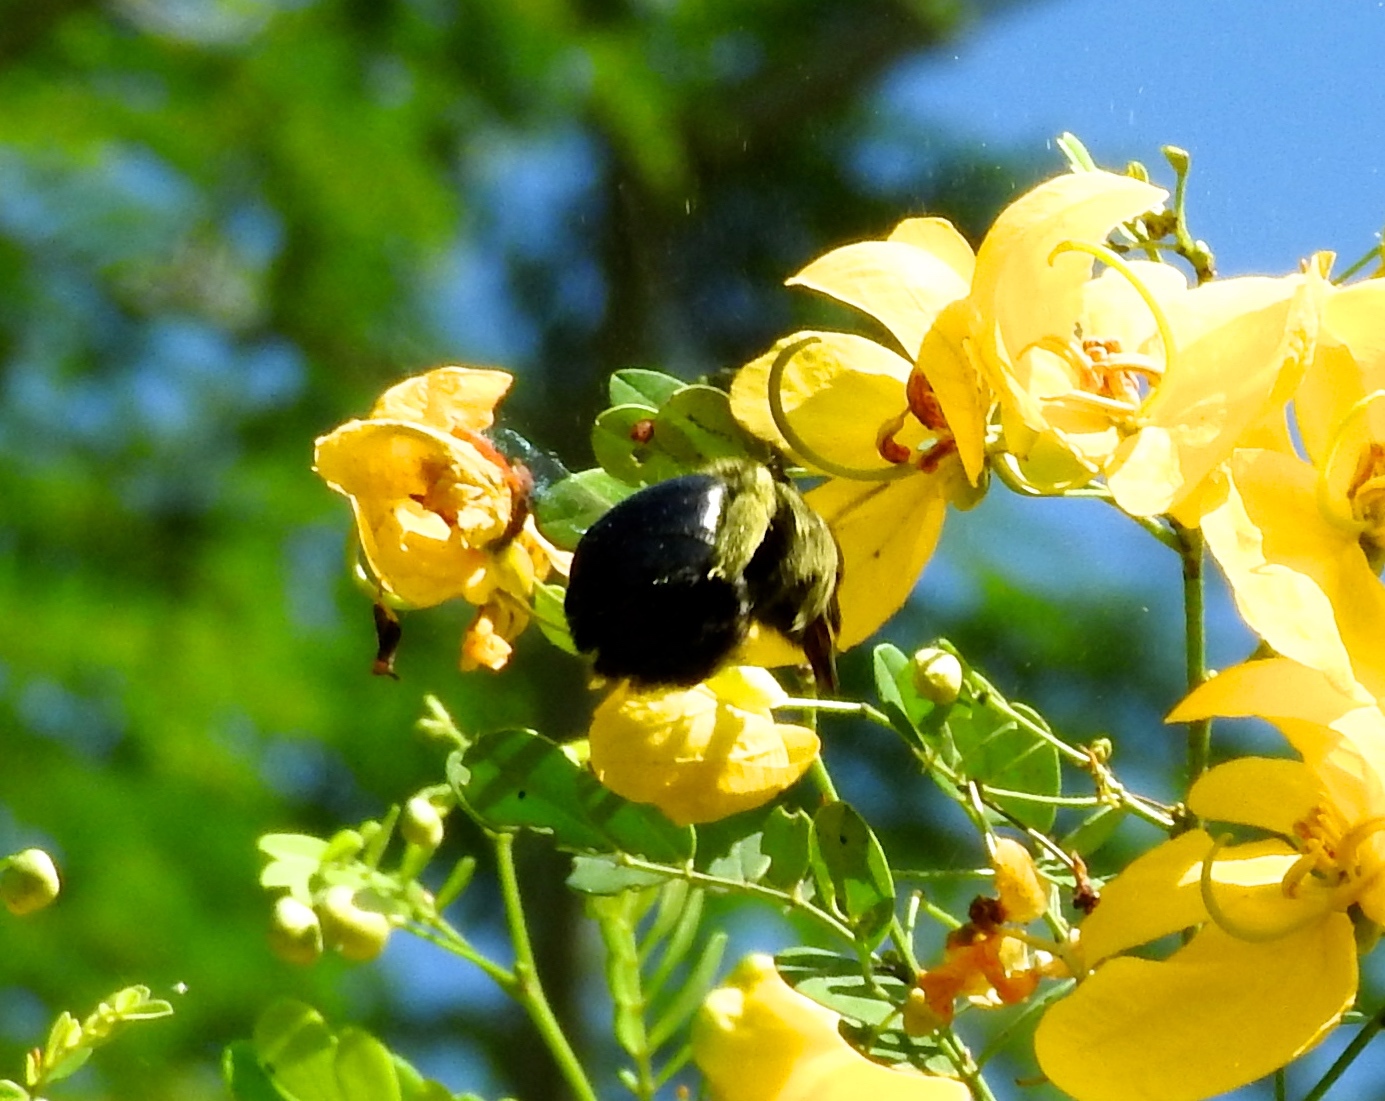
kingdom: Animalia
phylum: Arthropoda
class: Insecta
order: Hymenoptera
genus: Neoxylocopa
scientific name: Neoxylocopa
